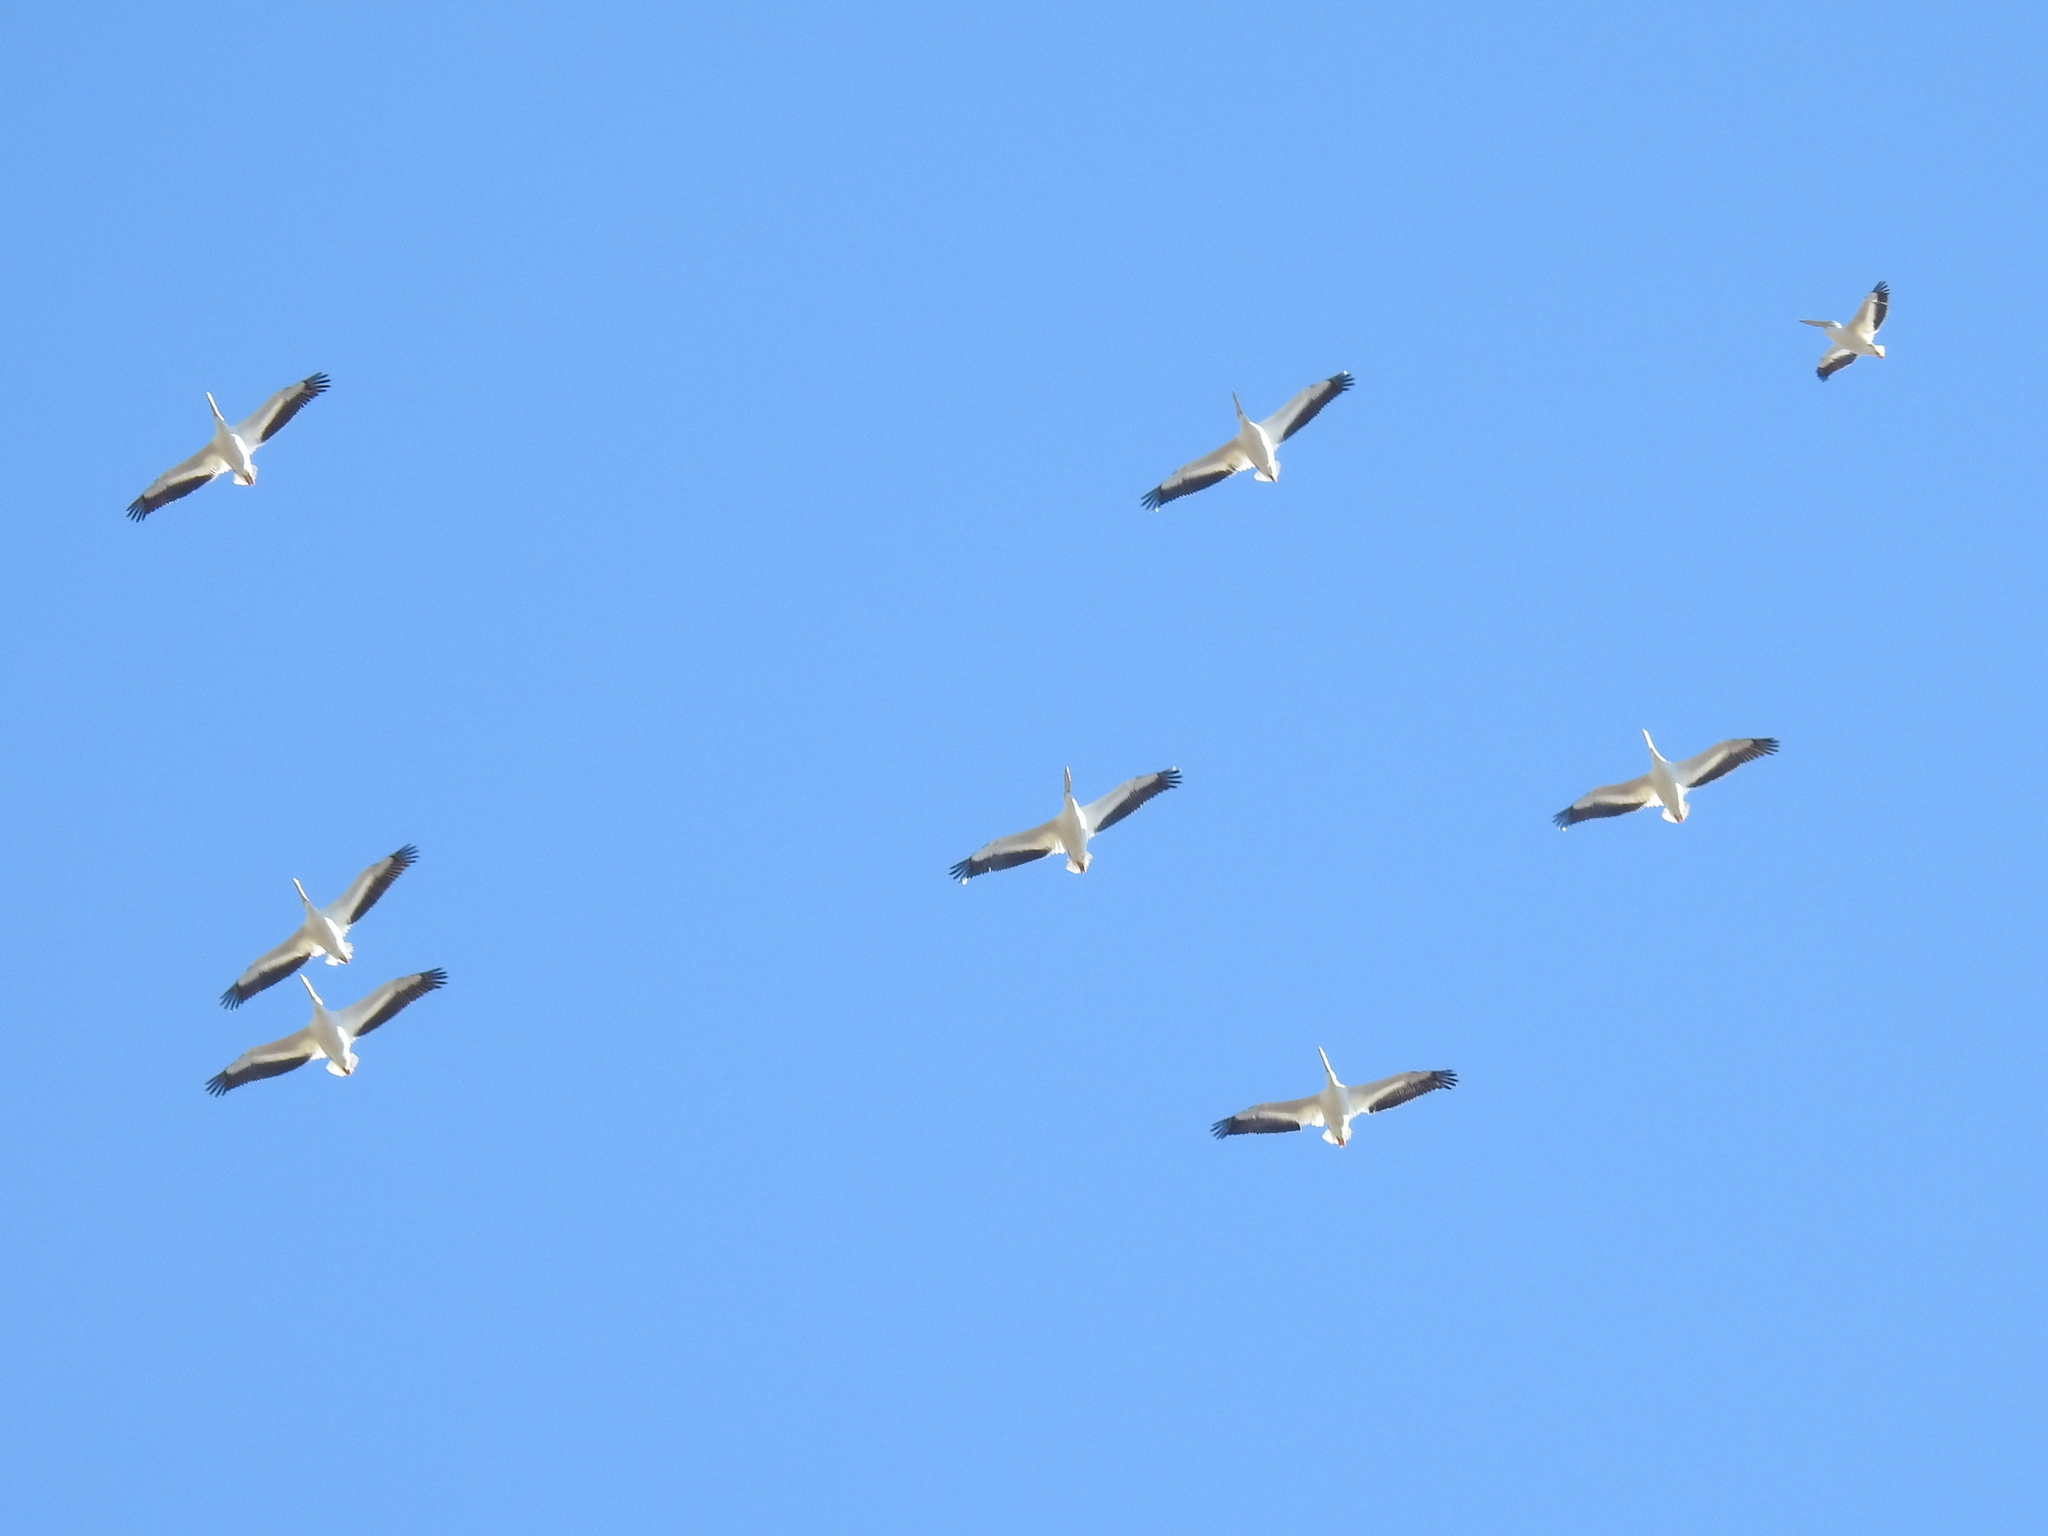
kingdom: Animalia
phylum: Chordata
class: Aves
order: Pelecaniformes
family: Pelecanidae
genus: Pelecanus
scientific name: Pelecanus erythrorhynchos
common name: American white pelican
